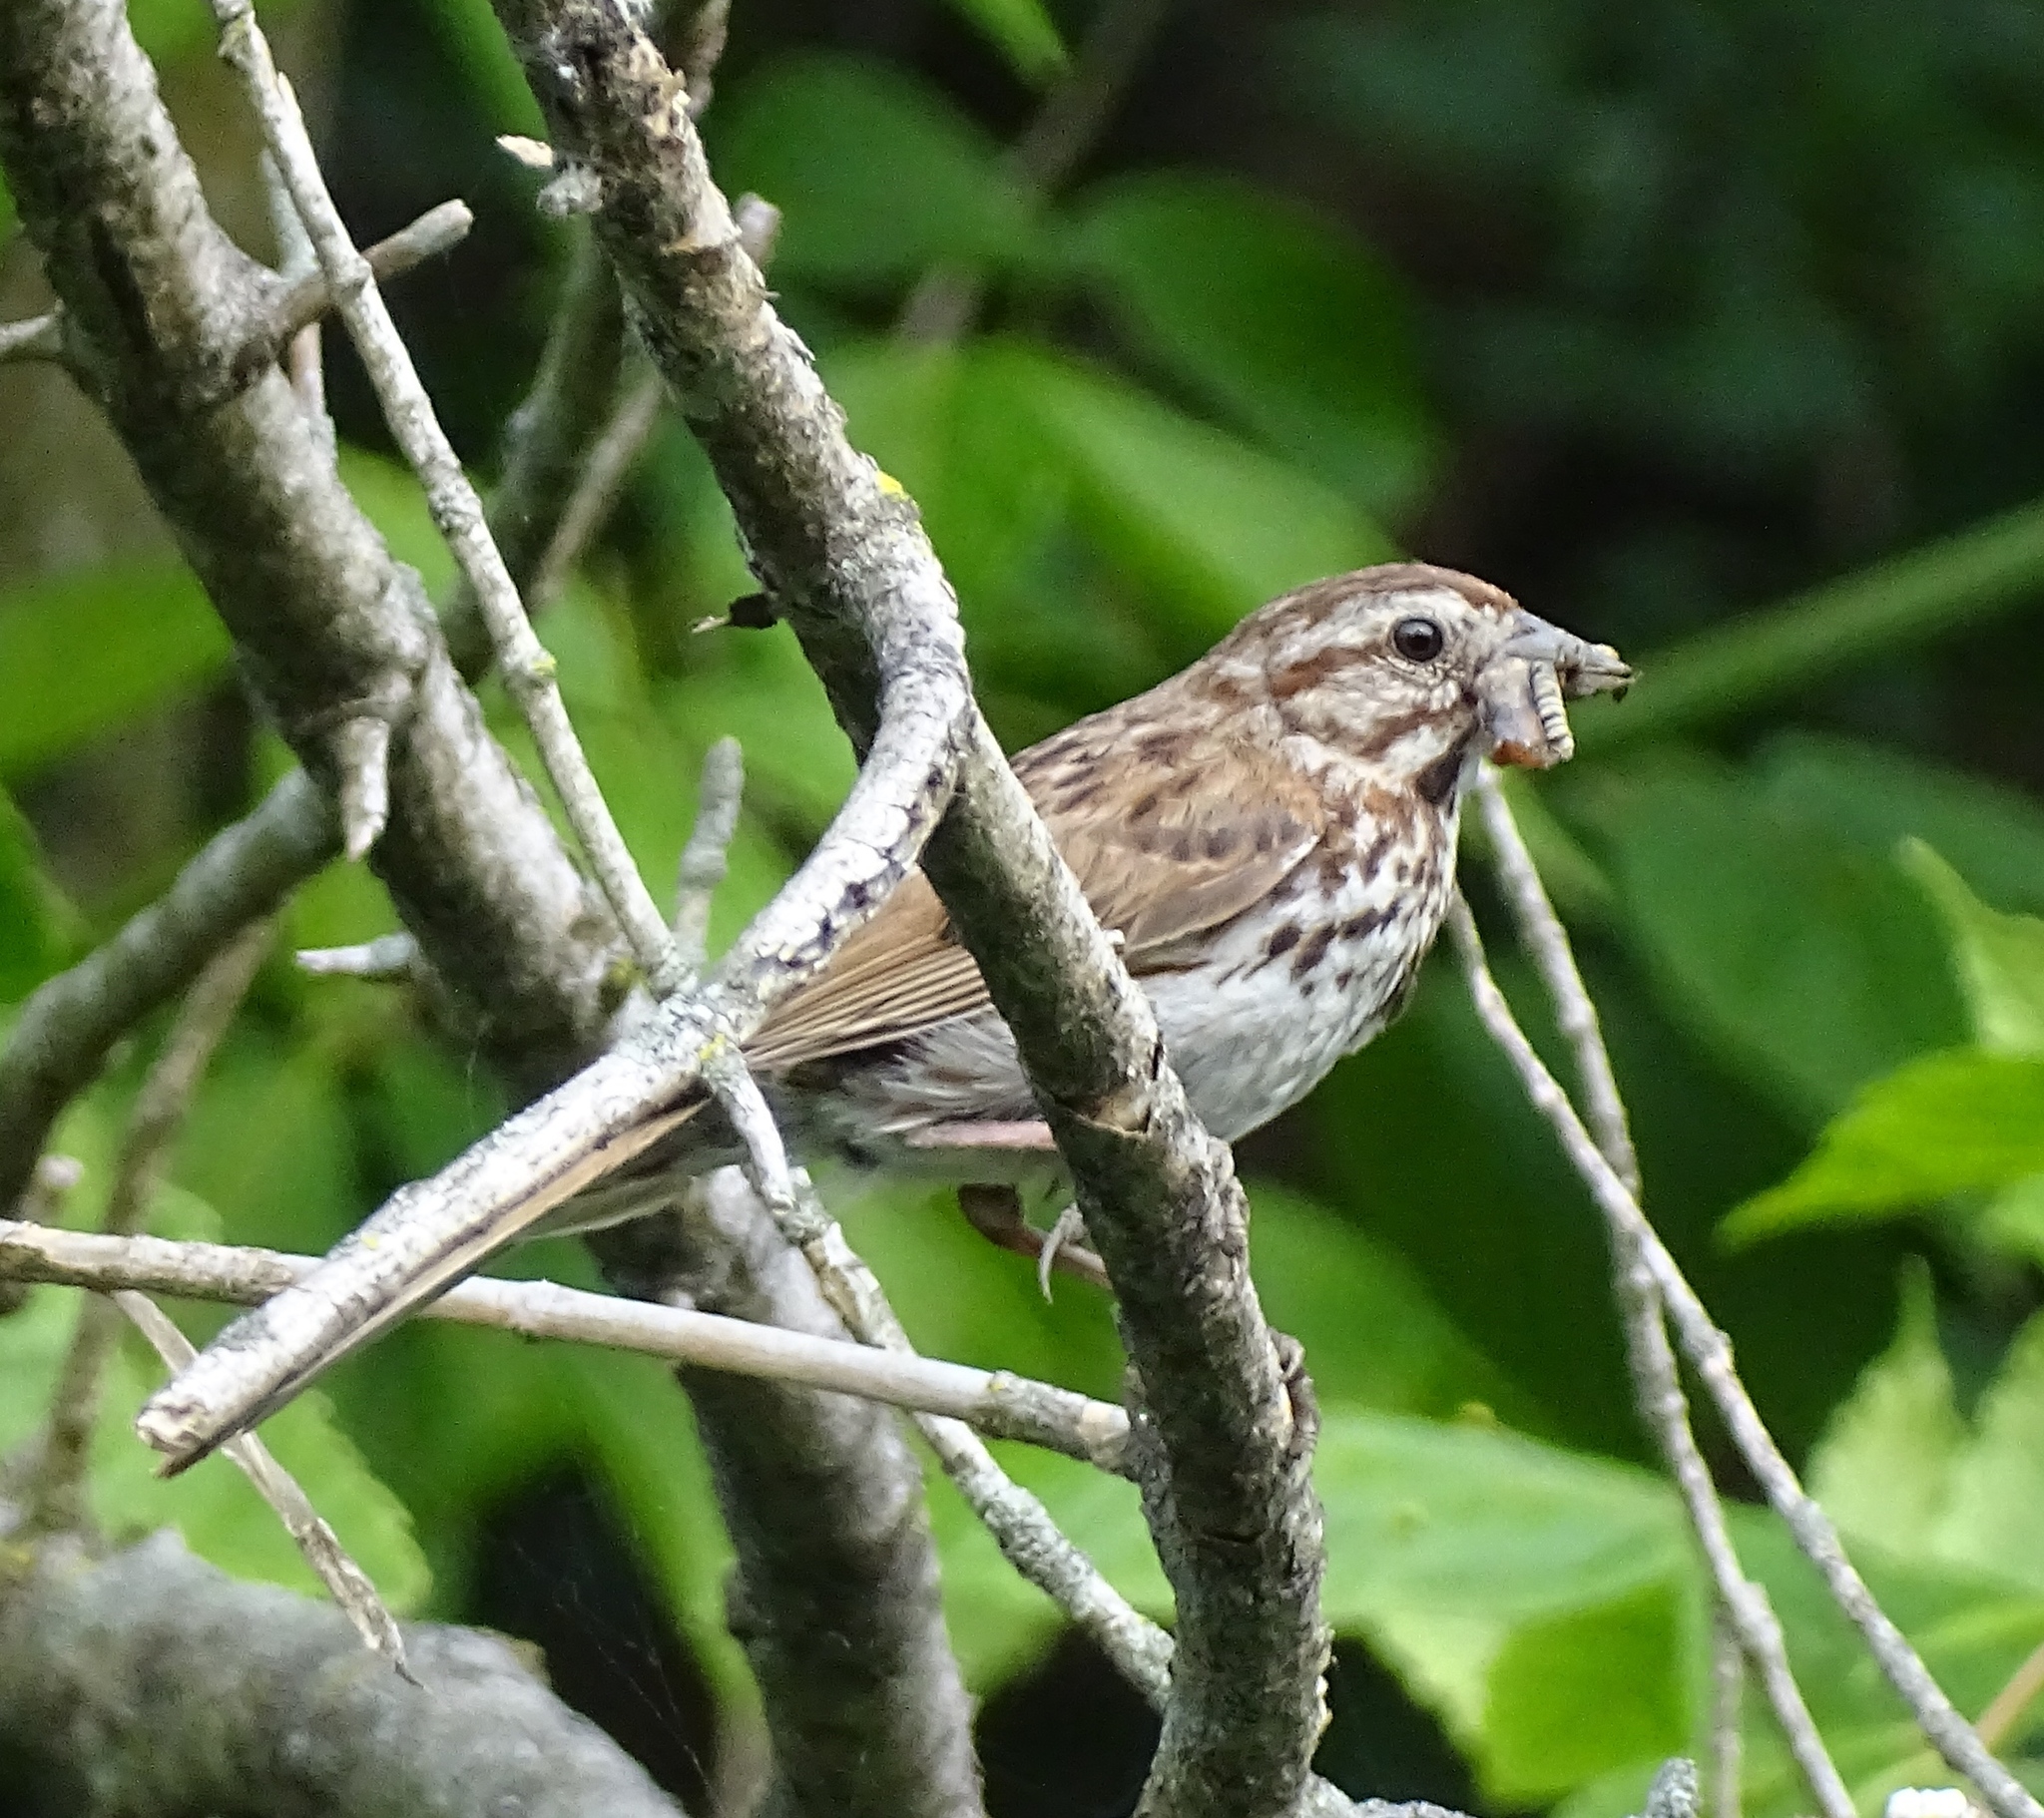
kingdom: Animalia
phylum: Chordata
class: Aves
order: Passeriformes
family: Passerellidae
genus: Melospiza
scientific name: Melospiza melodia
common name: Song sparrow
